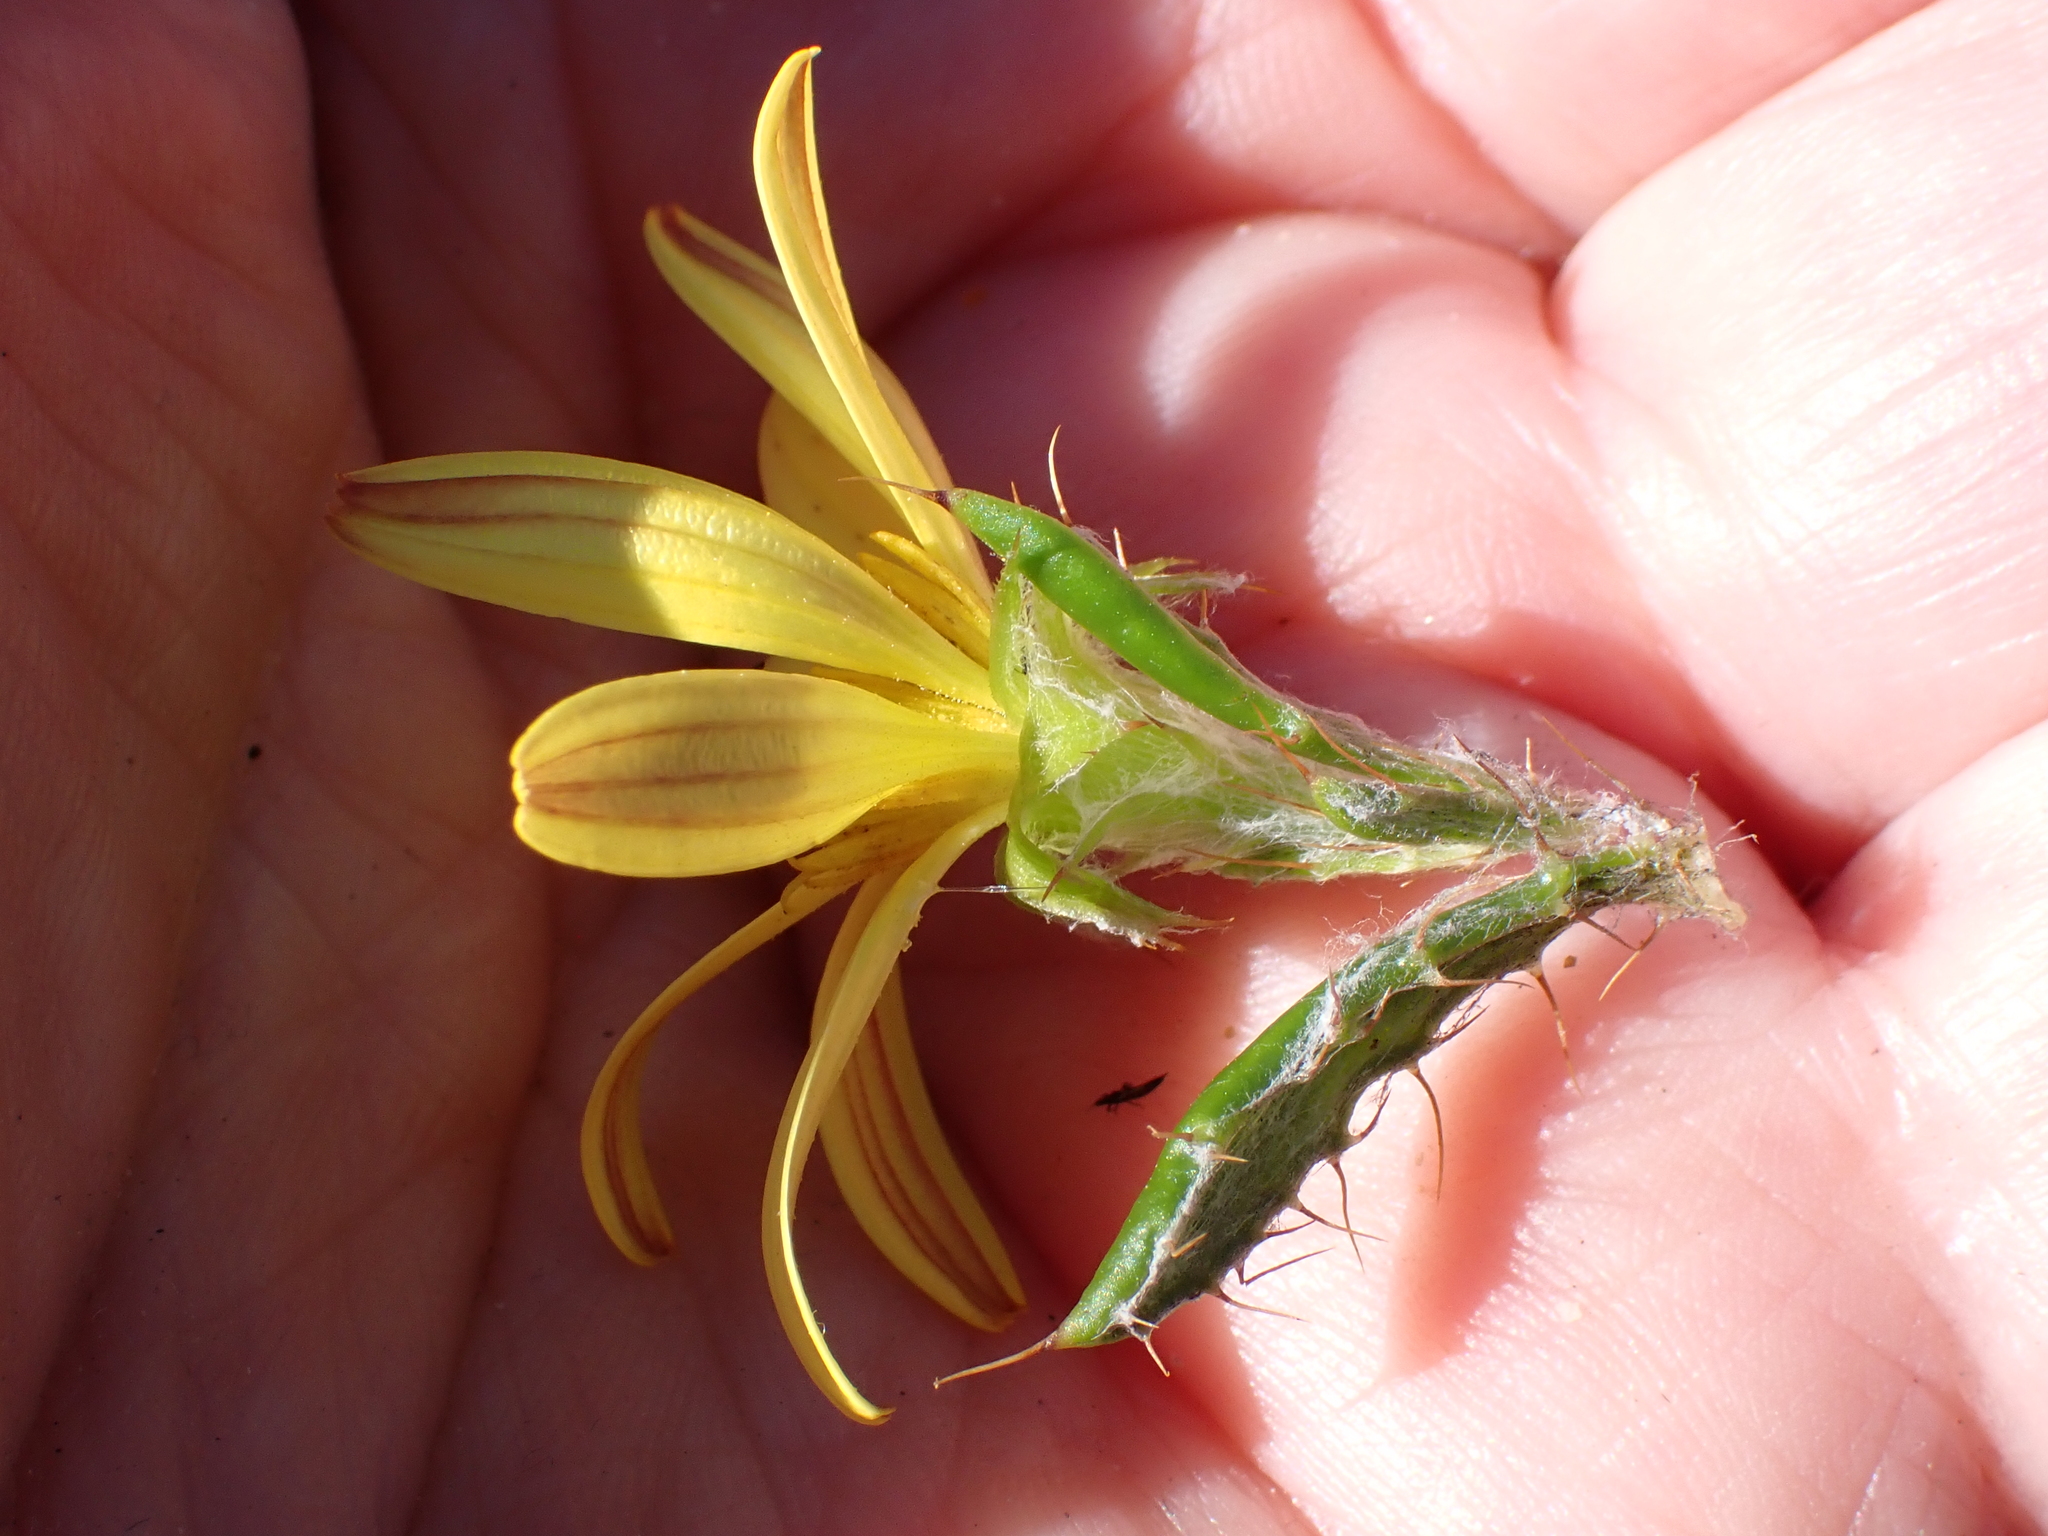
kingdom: Plantae
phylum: Tracheophyta
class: Magnoliopsida
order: Asterales
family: Asteraceae
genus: Cullumia
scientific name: Cullumia aculeata
